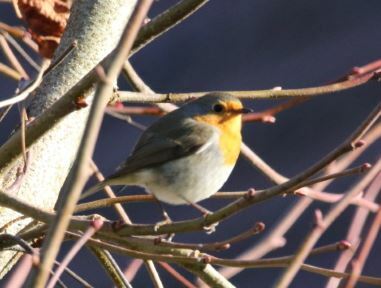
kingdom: Animalia
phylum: Chordata
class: Aves
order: Passeriformes
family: Muscicapidae
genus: Erithacus
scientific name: Erithacus rubecula
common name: European robin
